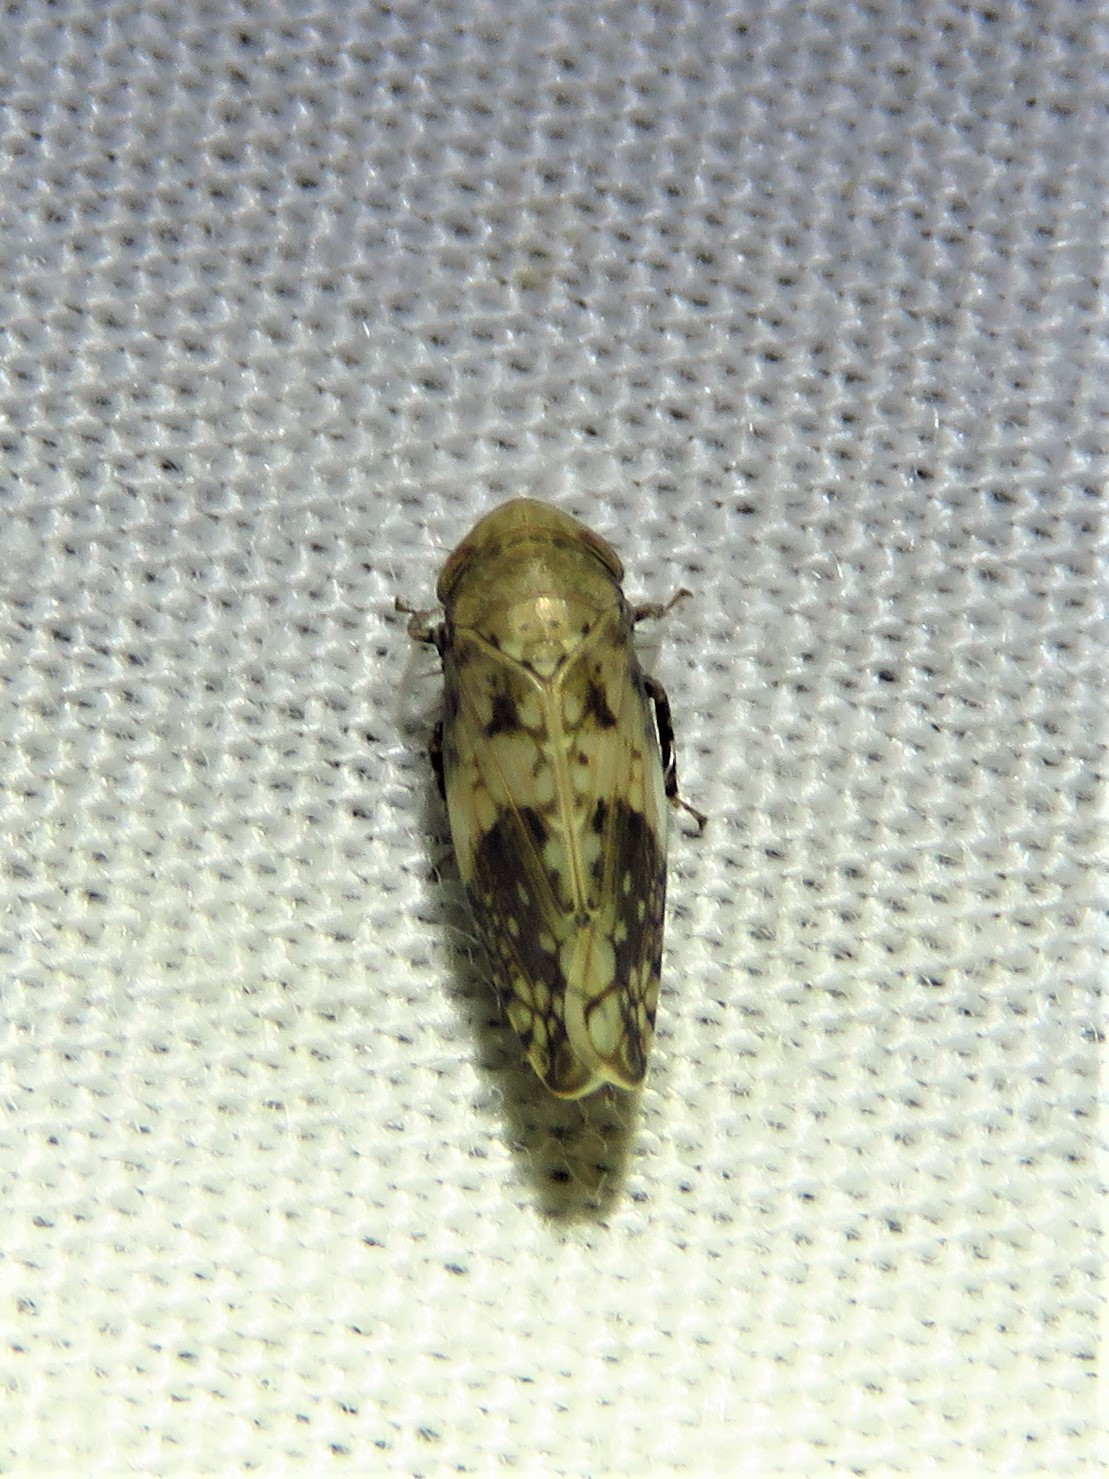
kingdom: Animalia
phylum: Arthropoda
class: Insecta
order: Hemiptera
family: Cicadellidae
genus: Menosoma
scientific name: Menosoma cinctum
